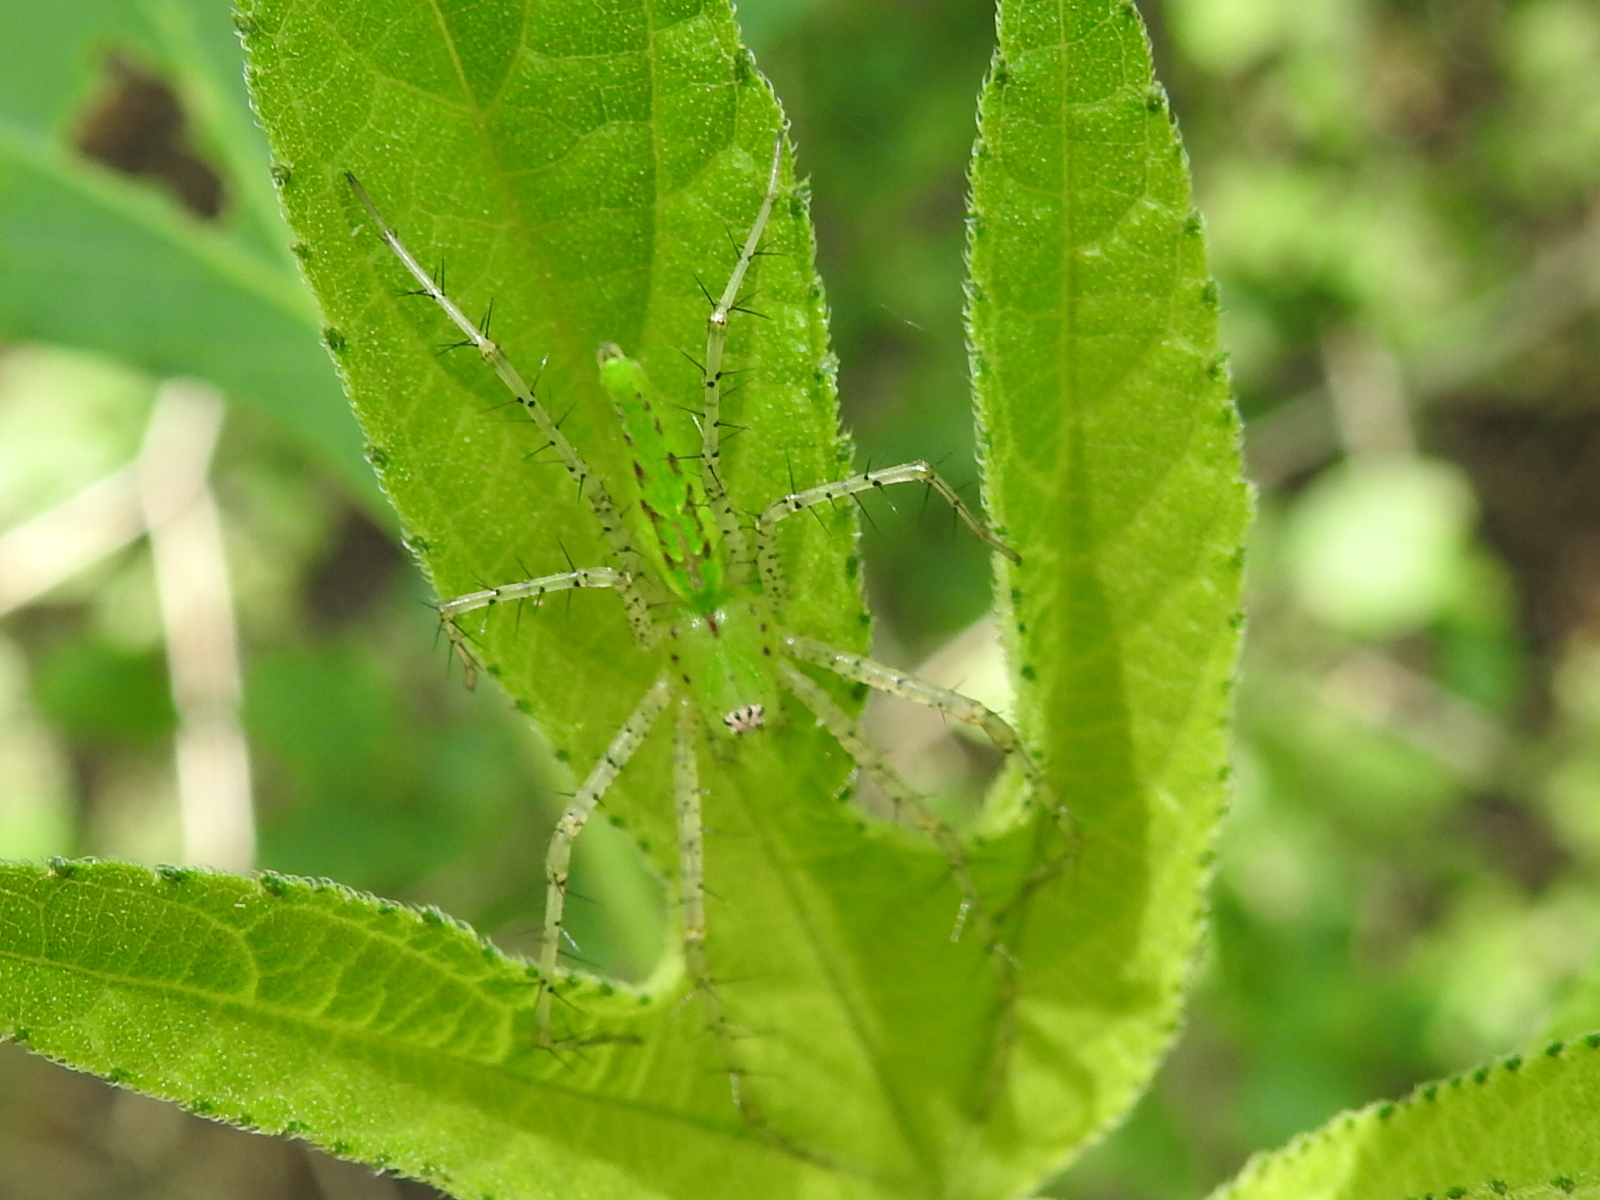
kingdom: Animalia
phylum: Arthropoda
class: Arachnida
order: Araneae
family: Oxyopidae
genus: Peucetia
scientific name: Peucetia viridans
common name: Lynx spiders
